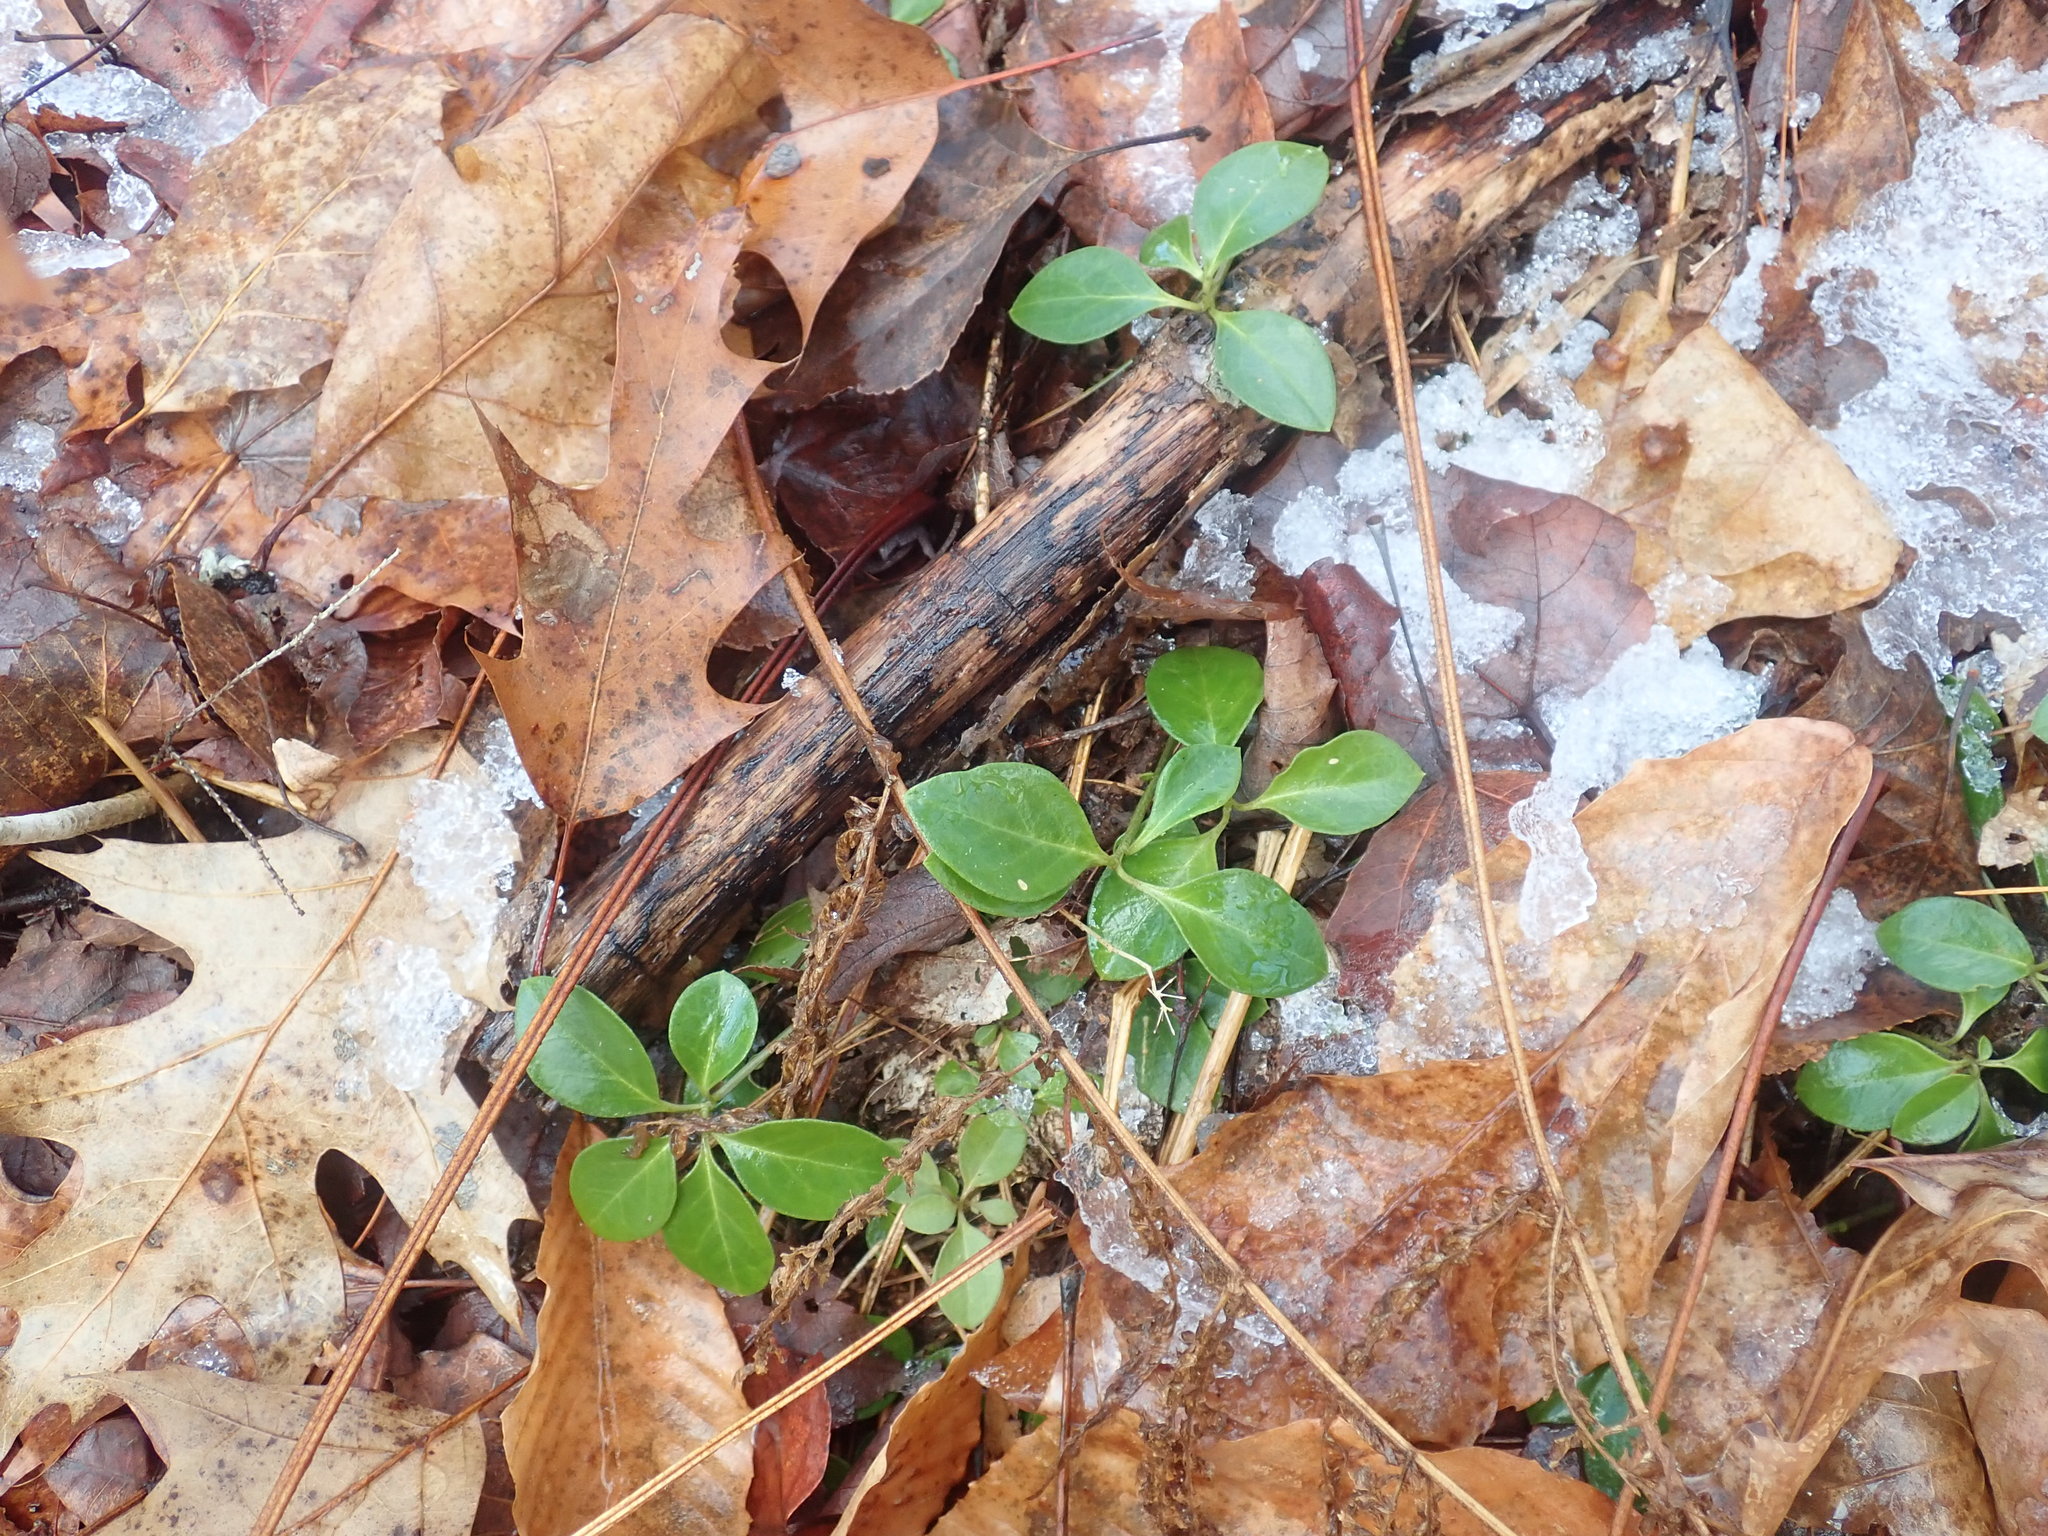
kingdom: Plantae
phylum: Tracheophyta
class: Magnoliopsida
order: Fabales
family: Polygalaceae
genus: Polygaloides
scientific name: Polygaloides paucifolia
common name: Bird-on-the-wing
